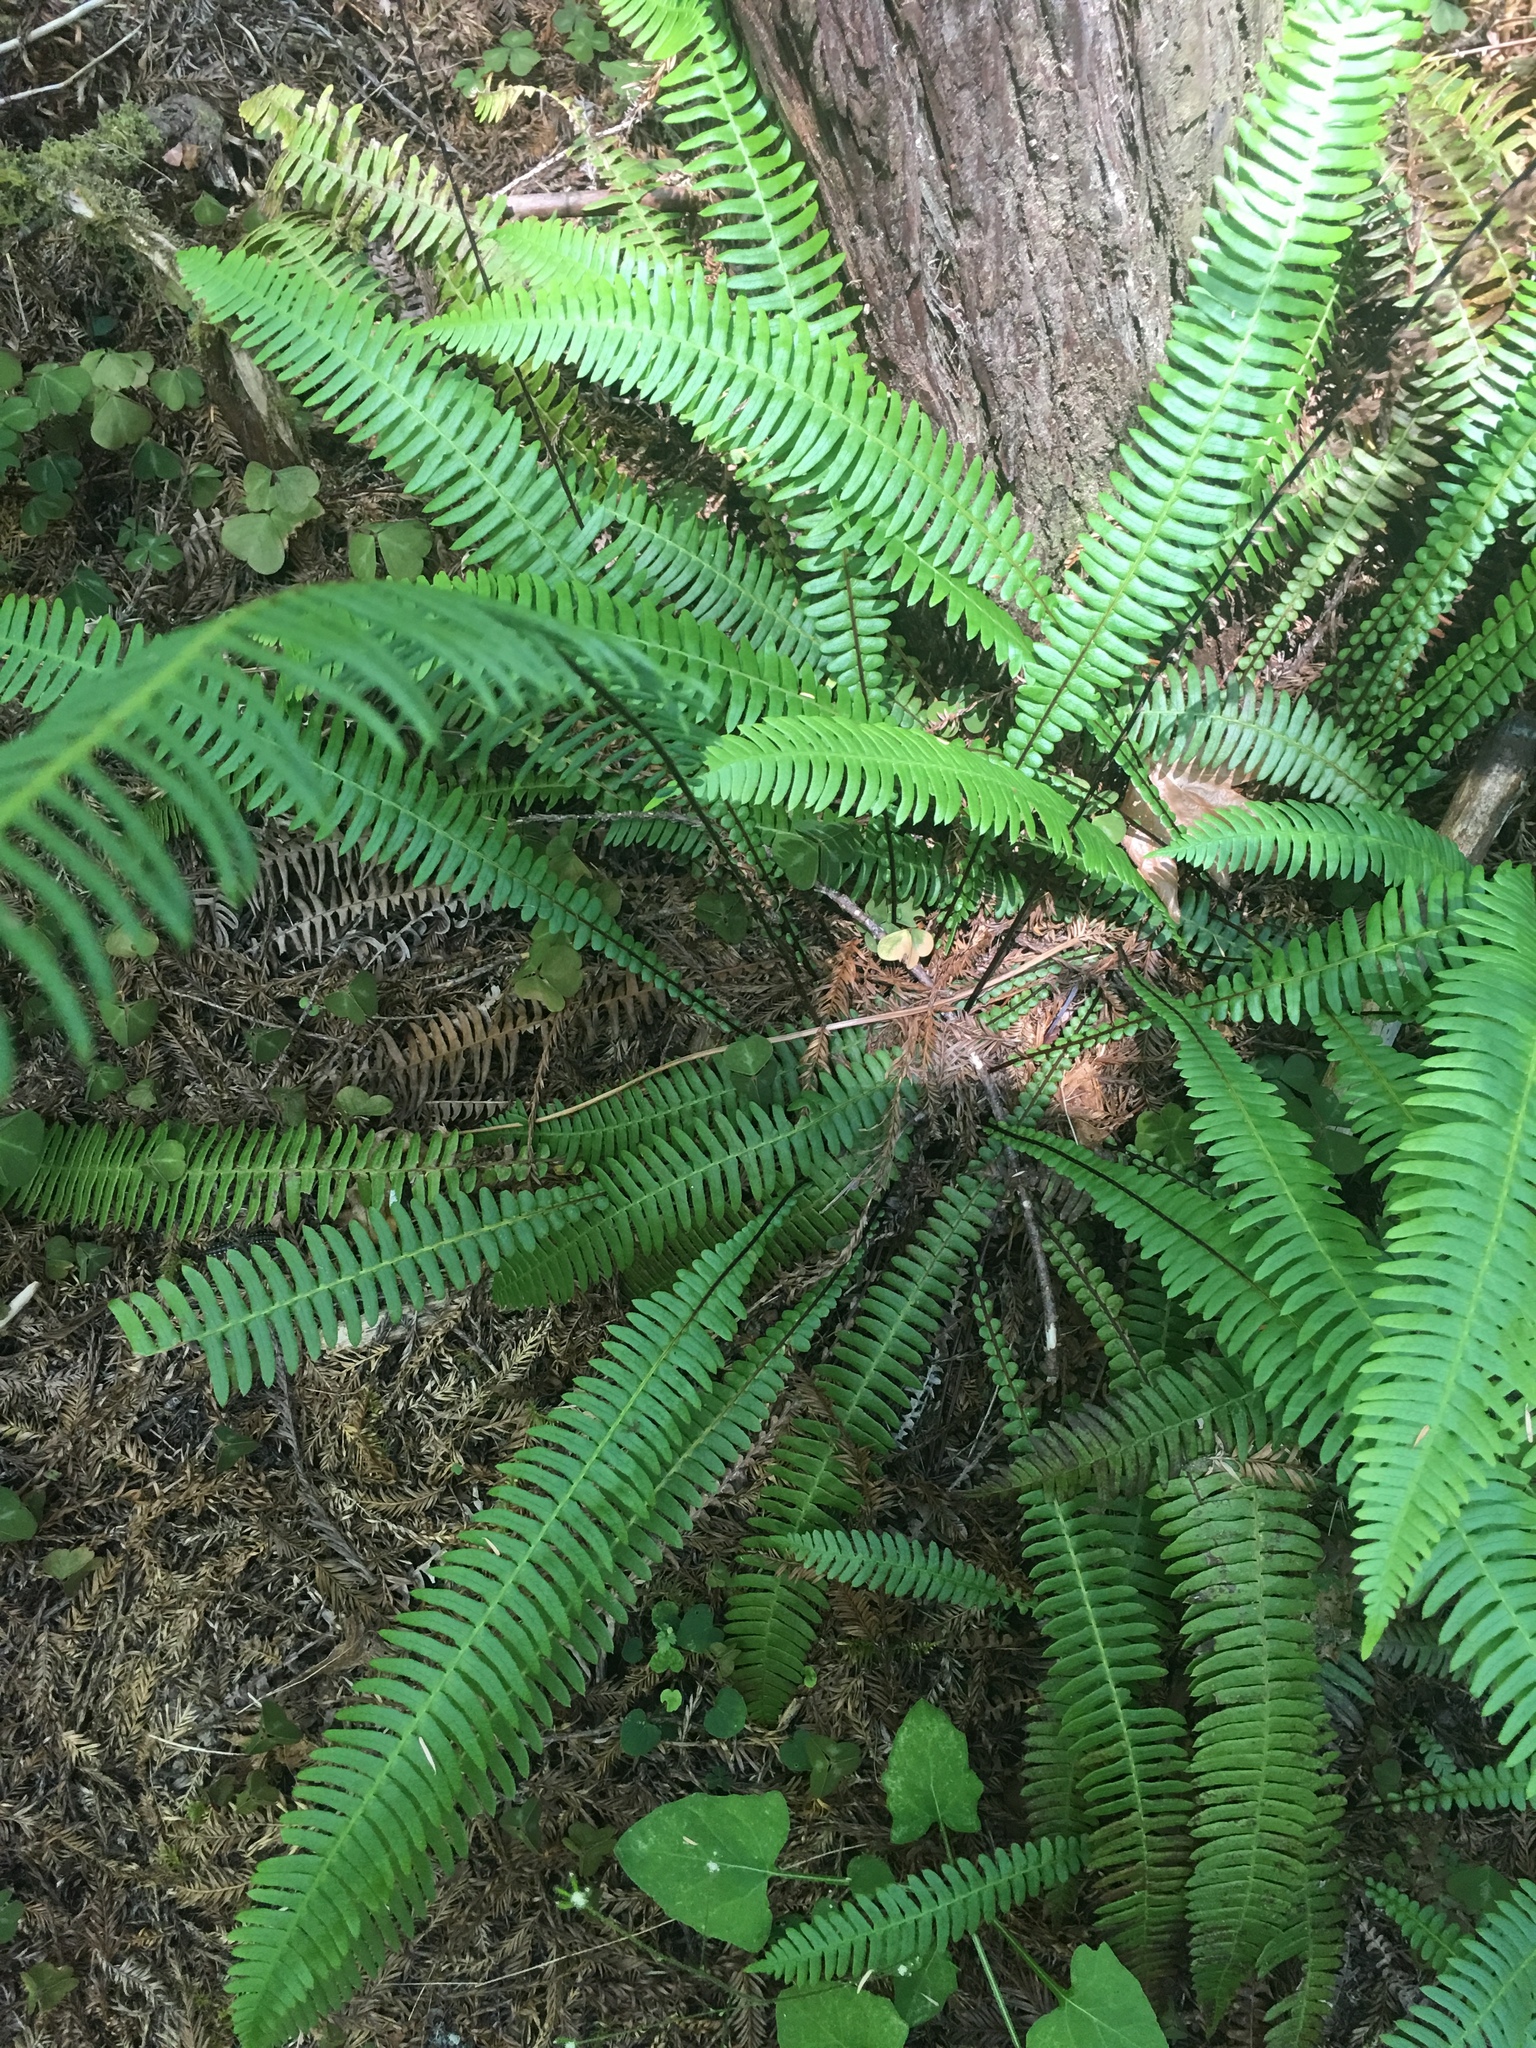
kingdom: Plantae
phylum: Tracheophyta
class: Polypodiopsida
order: Polypodiales
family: Blechnaceae
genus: Struthiopteris
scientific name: Struthiopteris spicant
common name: Deer fern
